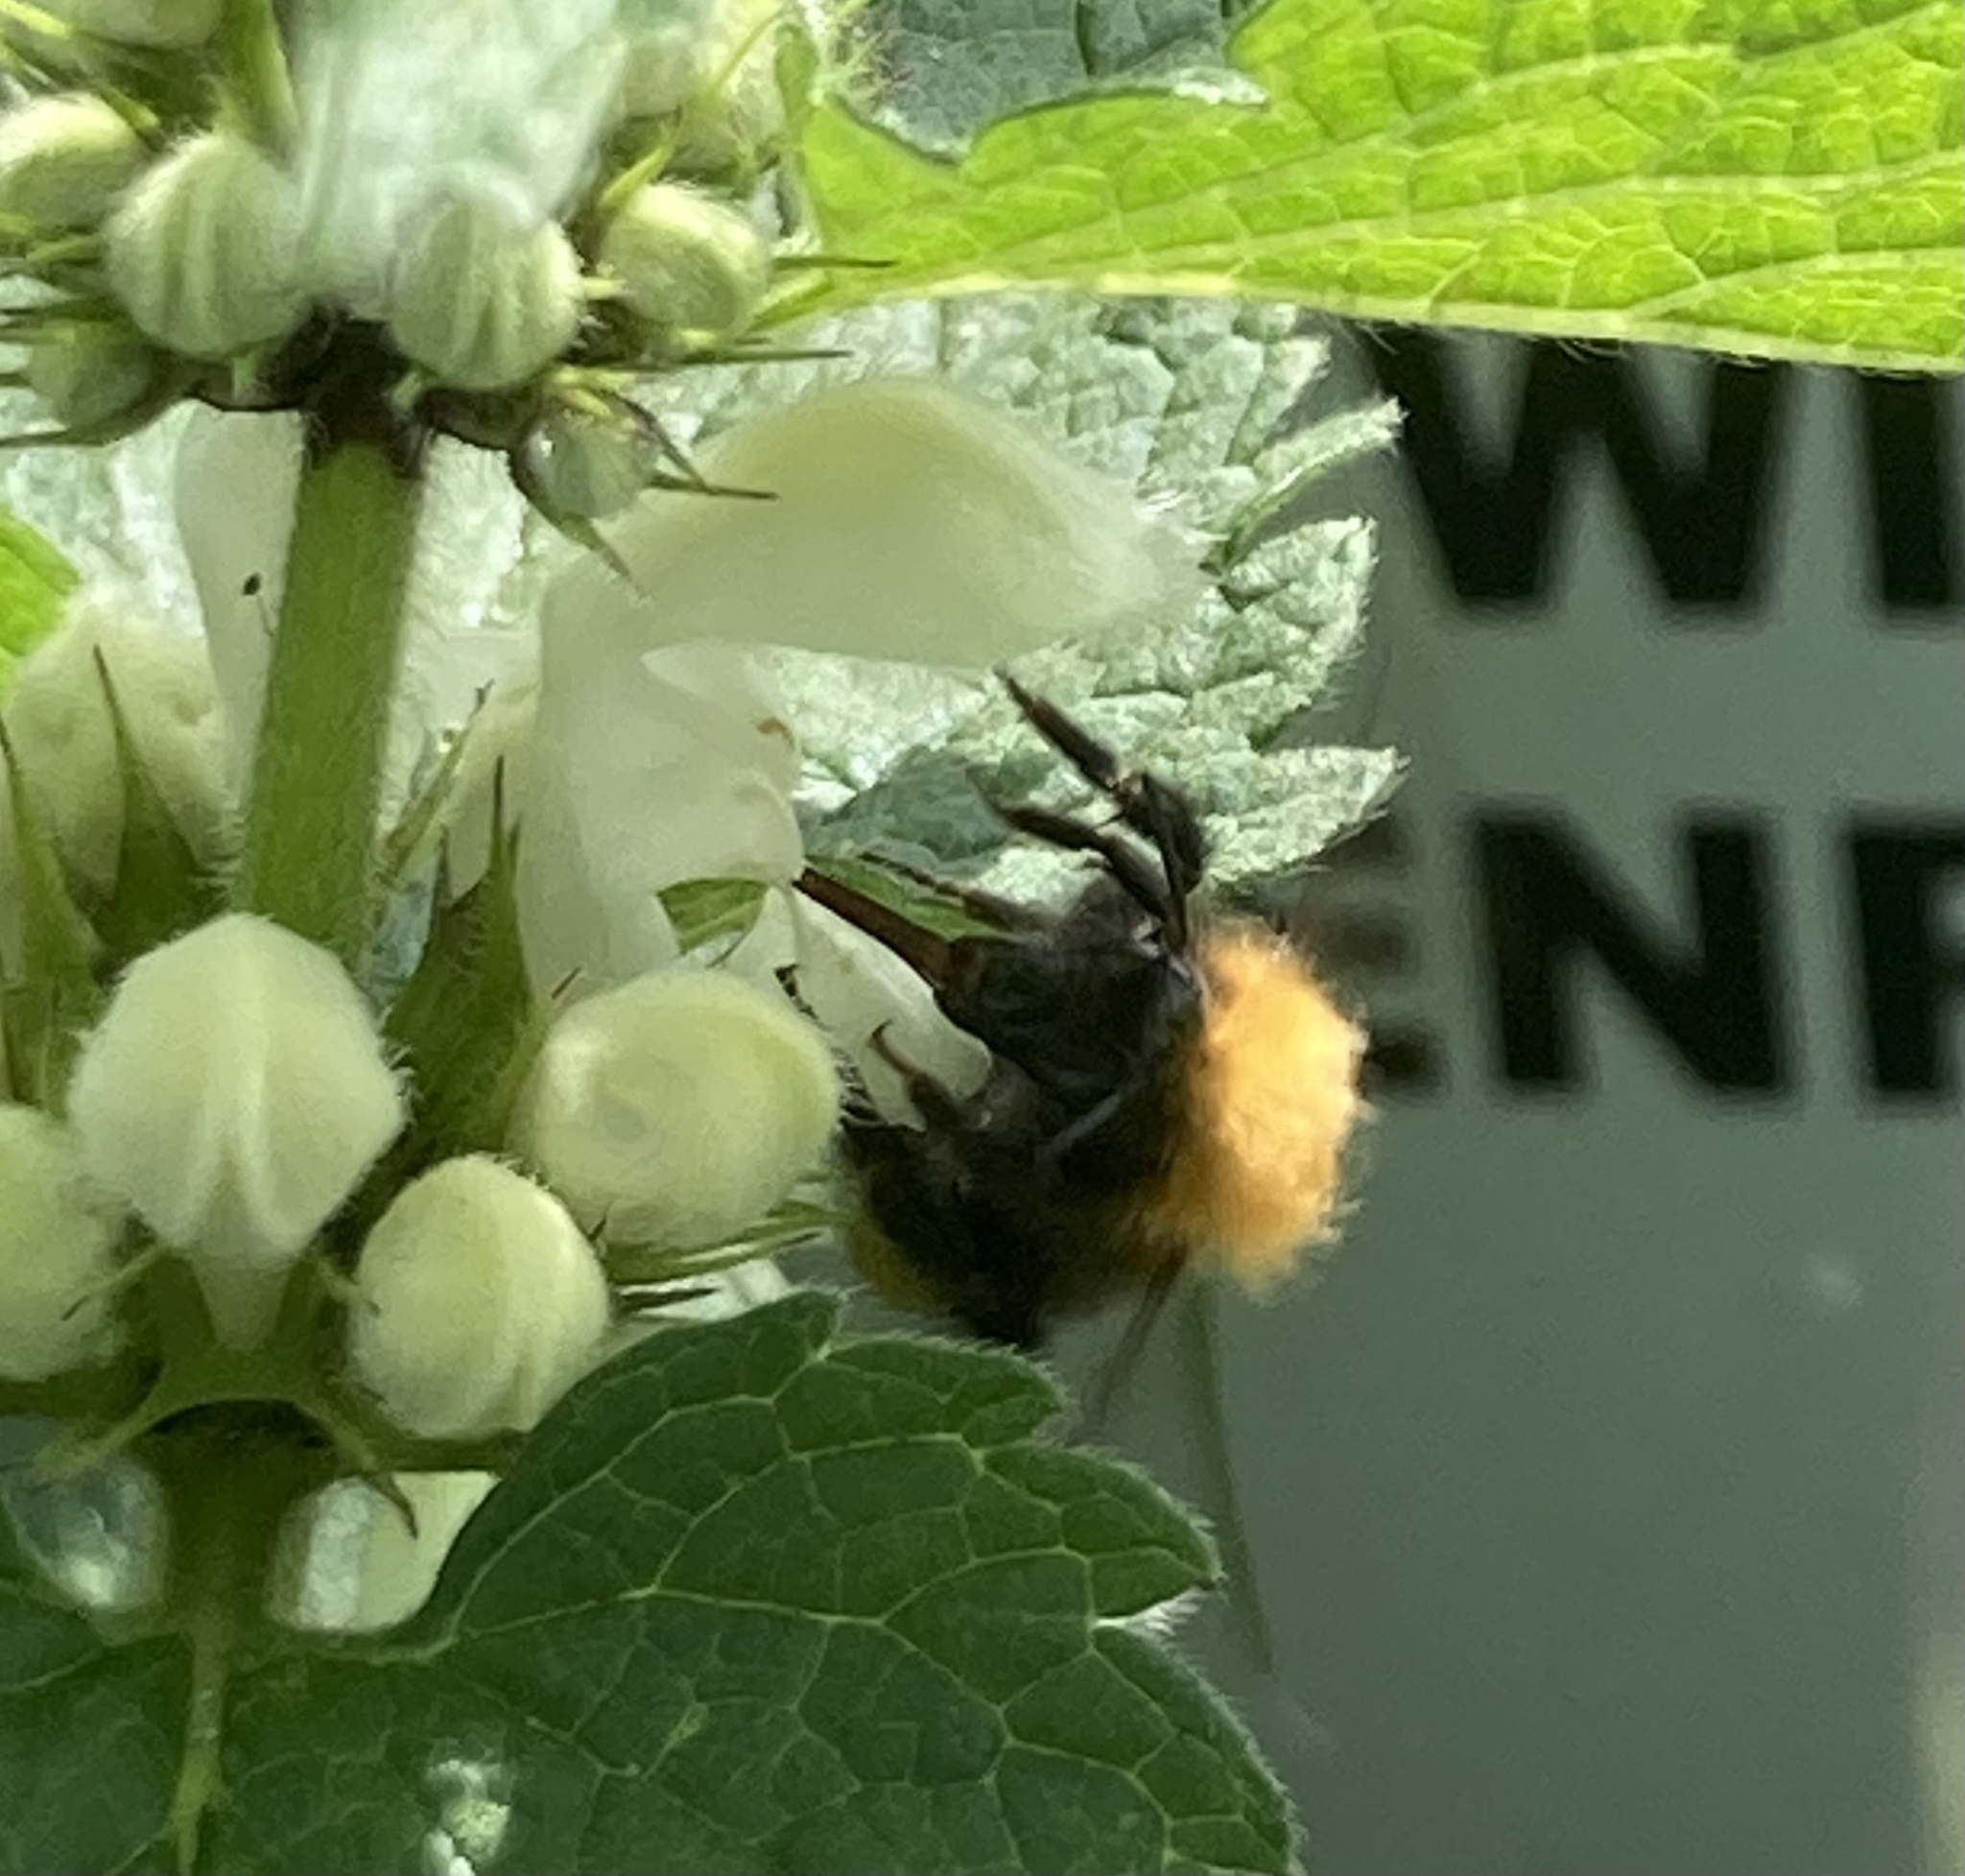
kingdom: Animalia
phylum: Arthropoda
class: Insecta
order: Hymenoptera
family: Apidae
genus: Bombus
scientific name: Bombus pascuorum
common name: Common carder bee
